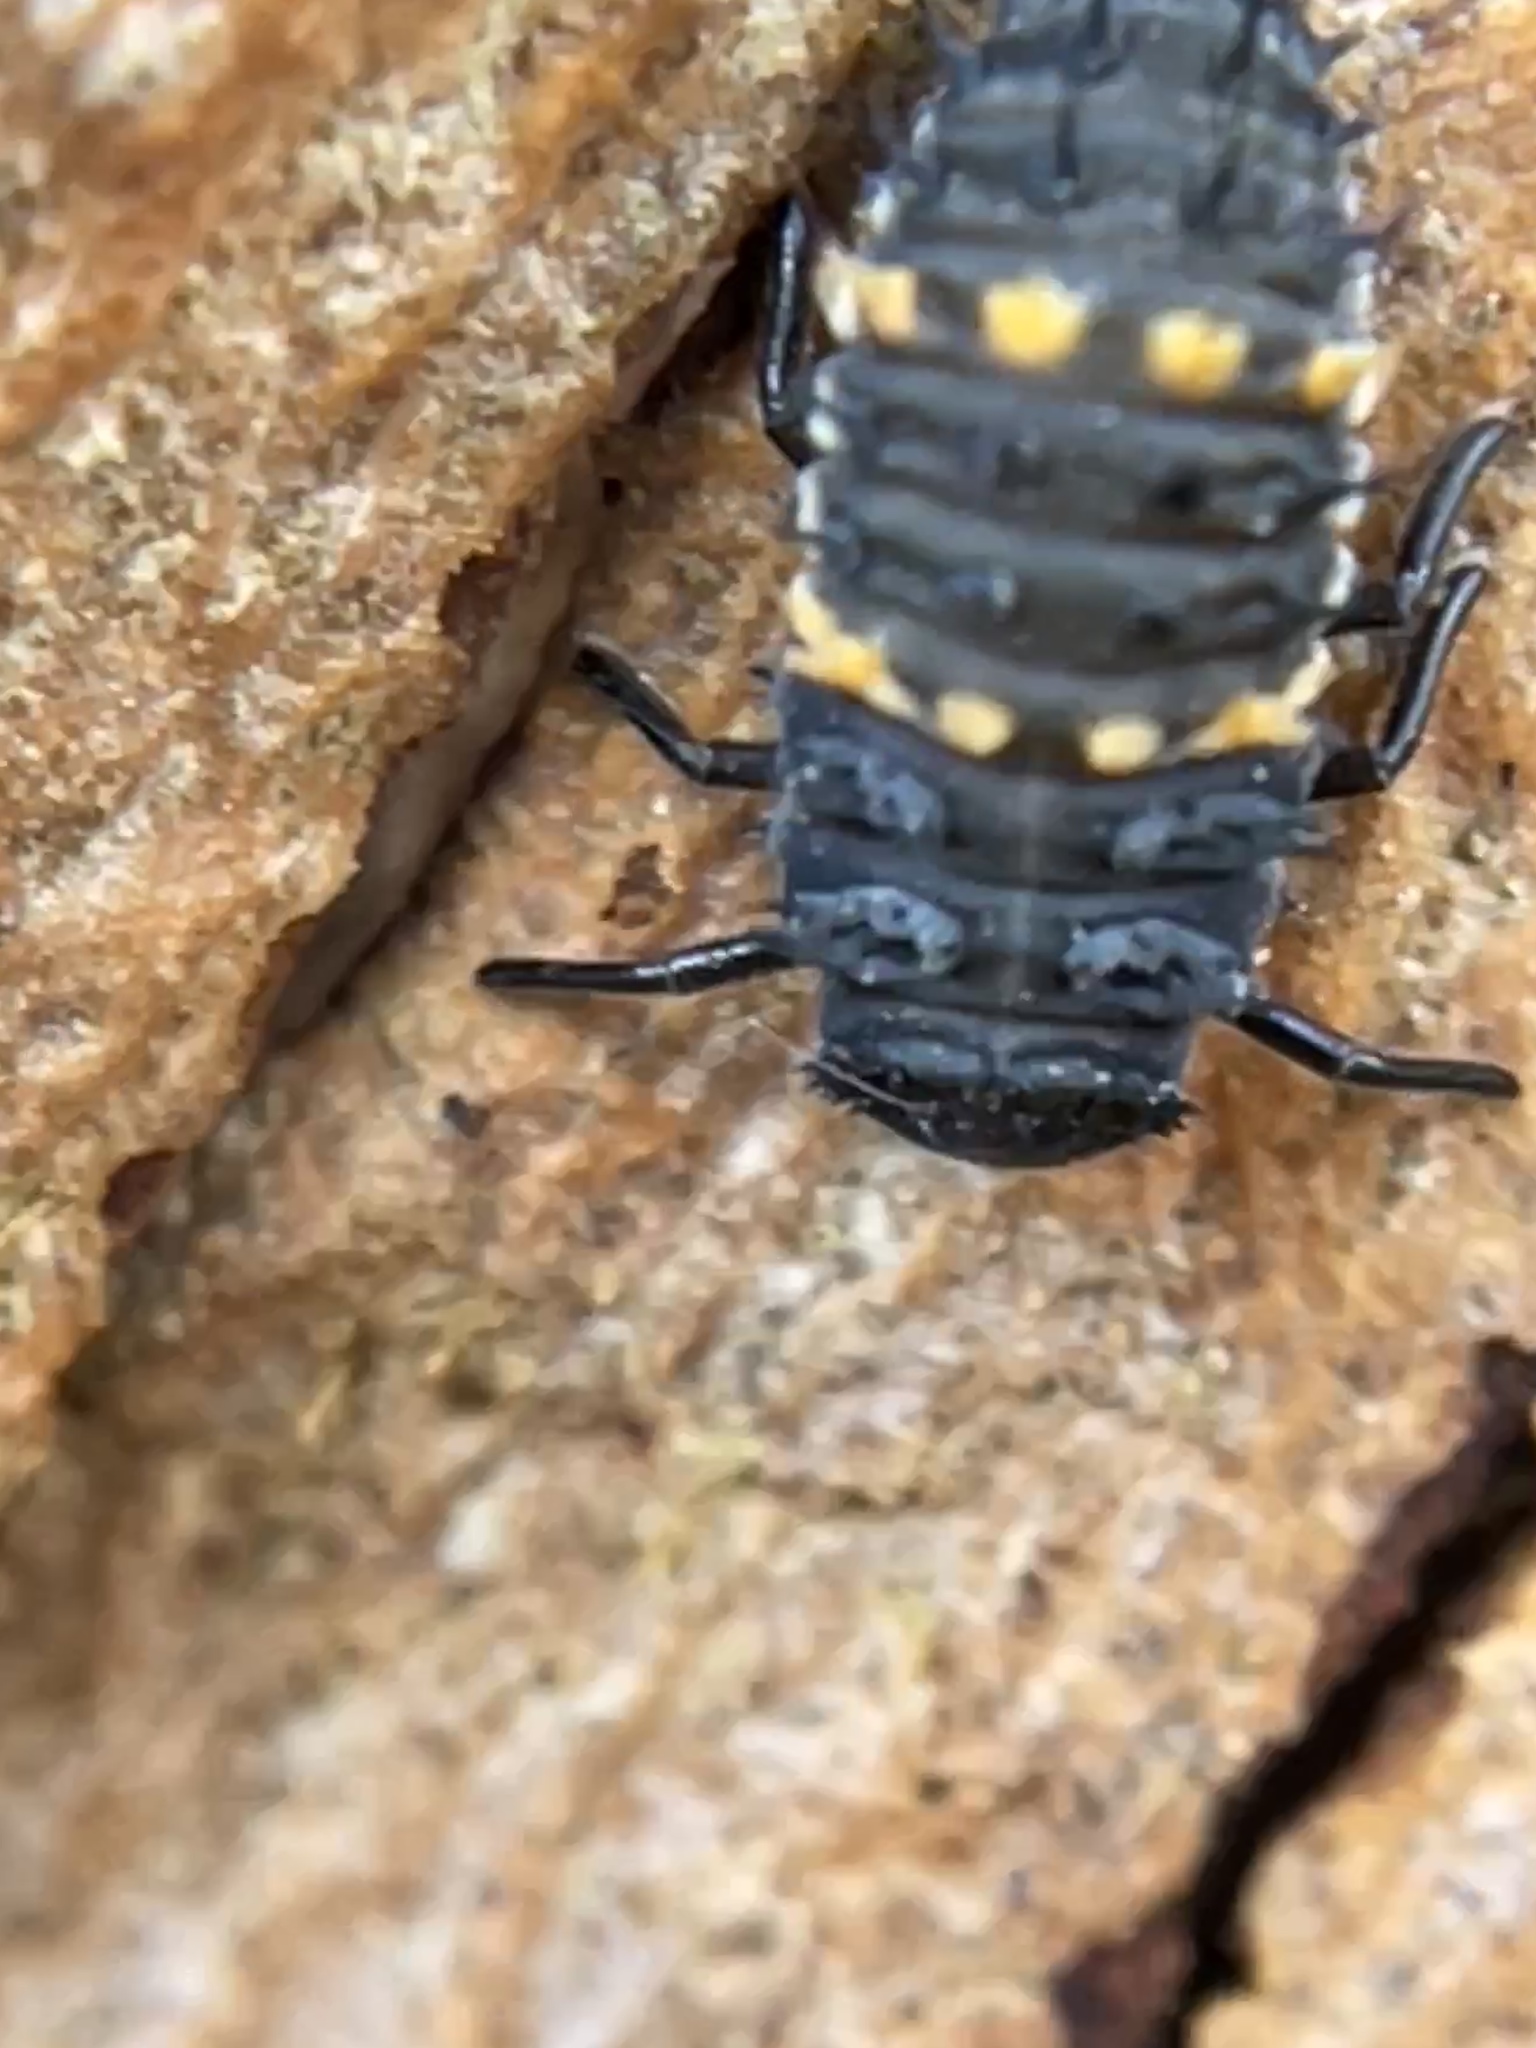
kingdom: Animalia
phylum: Arthropoda
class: Insecta
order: Coleoptera
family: Coccinellidae
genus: Harmonia
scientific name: Harmonia conformis
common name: Common spotted ladybird beetle
